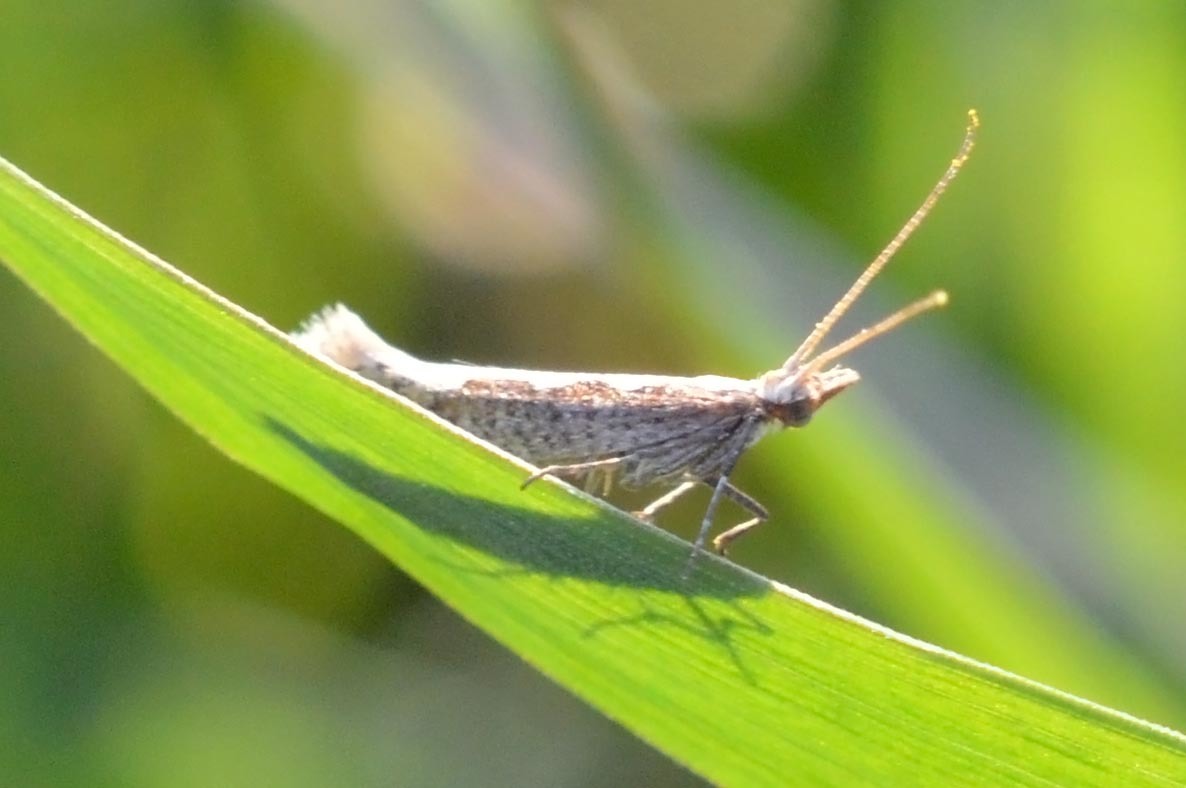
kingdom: Animalia
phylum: Arthropoda
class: Insecta
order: Lepidoptera
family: Plutellidae
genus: Plutella
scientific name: Plutella xylostella
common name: Diamond-back moth
